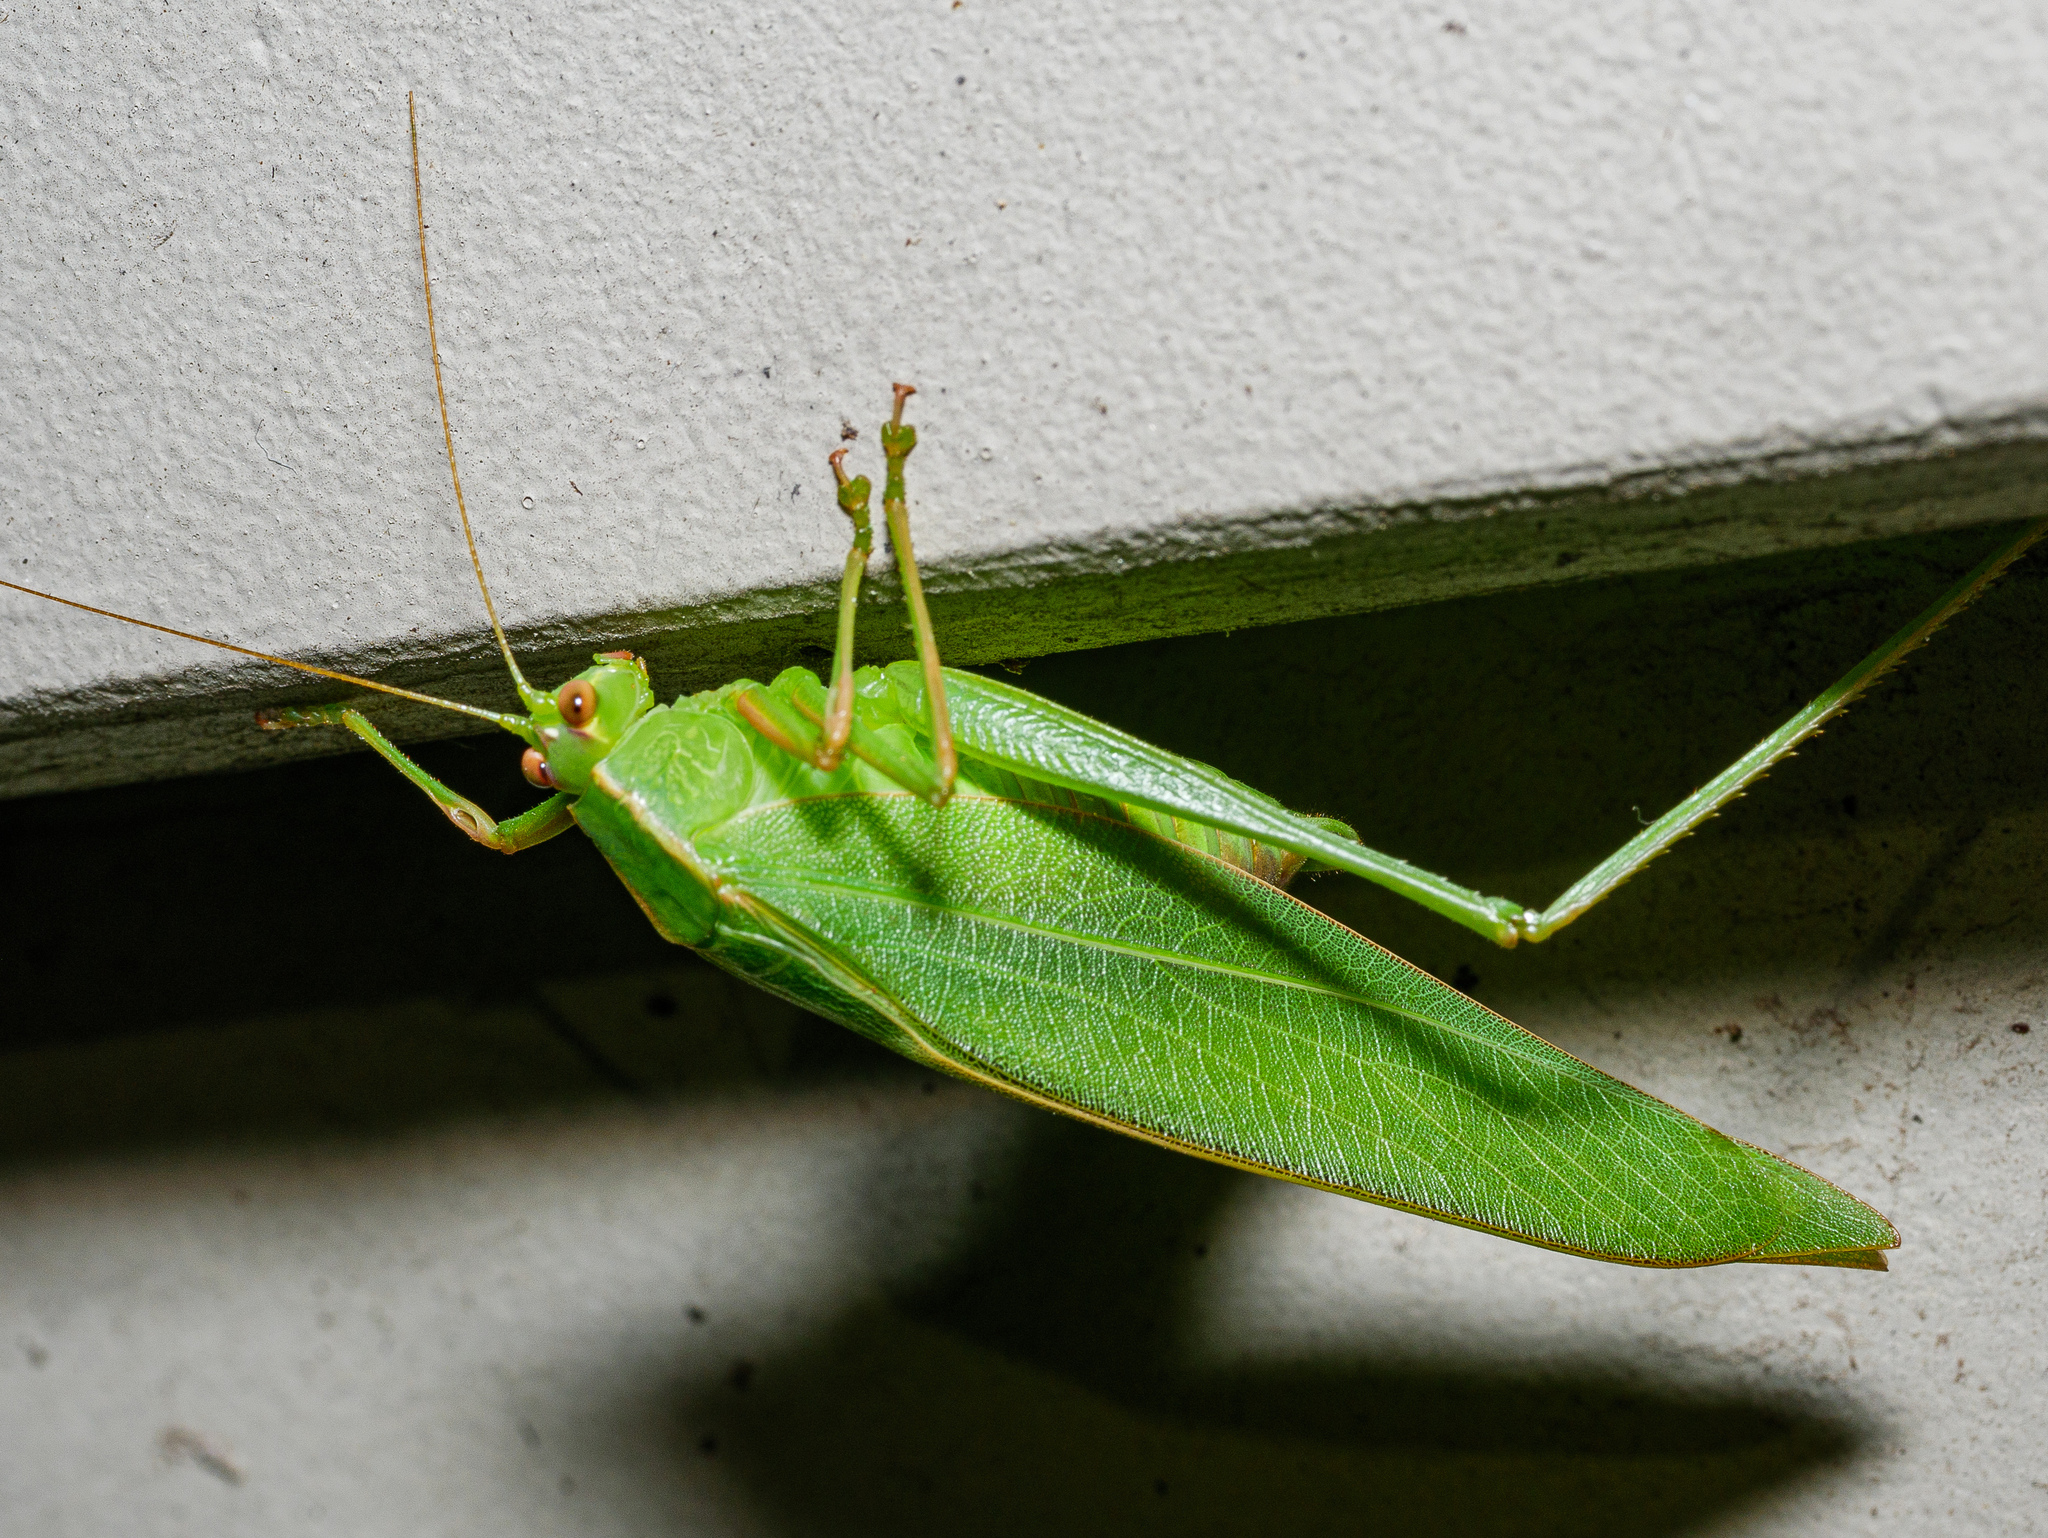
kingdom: Animalia
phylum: Arthropoda
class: Insecta
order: Orthoptera
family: Tettigoniidae
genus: Caedicia
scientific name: Caedicia simplex
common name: Common garden katydid
